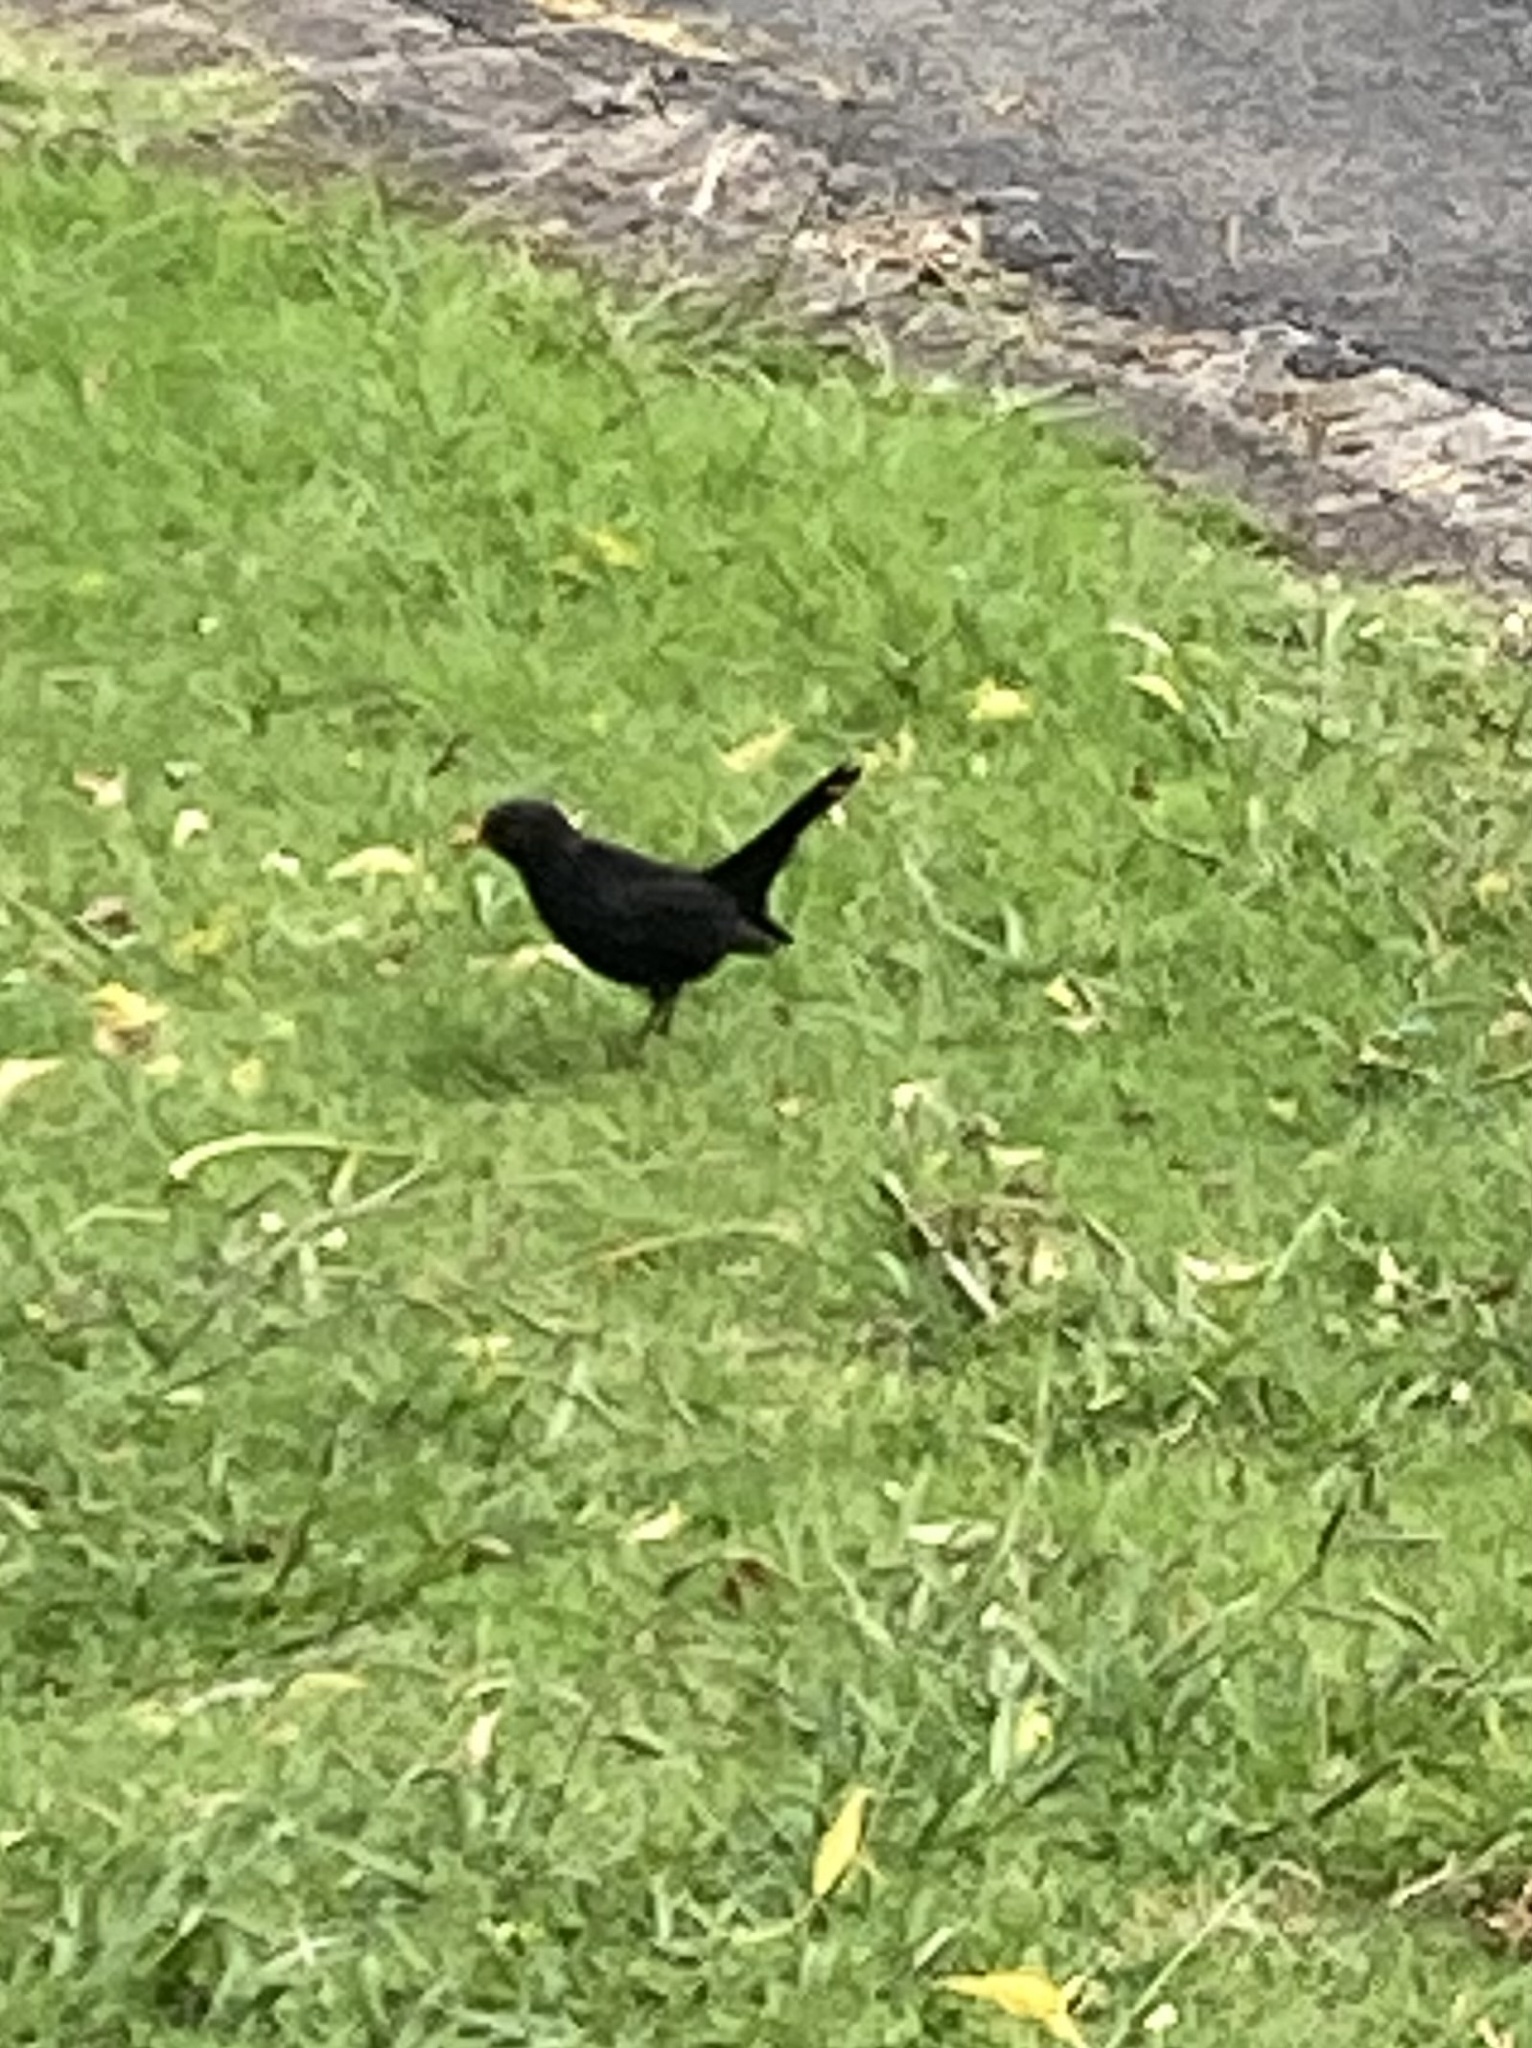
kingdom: Animalia
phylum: Chordata
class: Aves
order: Passeriformes
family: Turdidae
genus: Turdus
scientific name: Turdus merula
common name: Common blackbird
